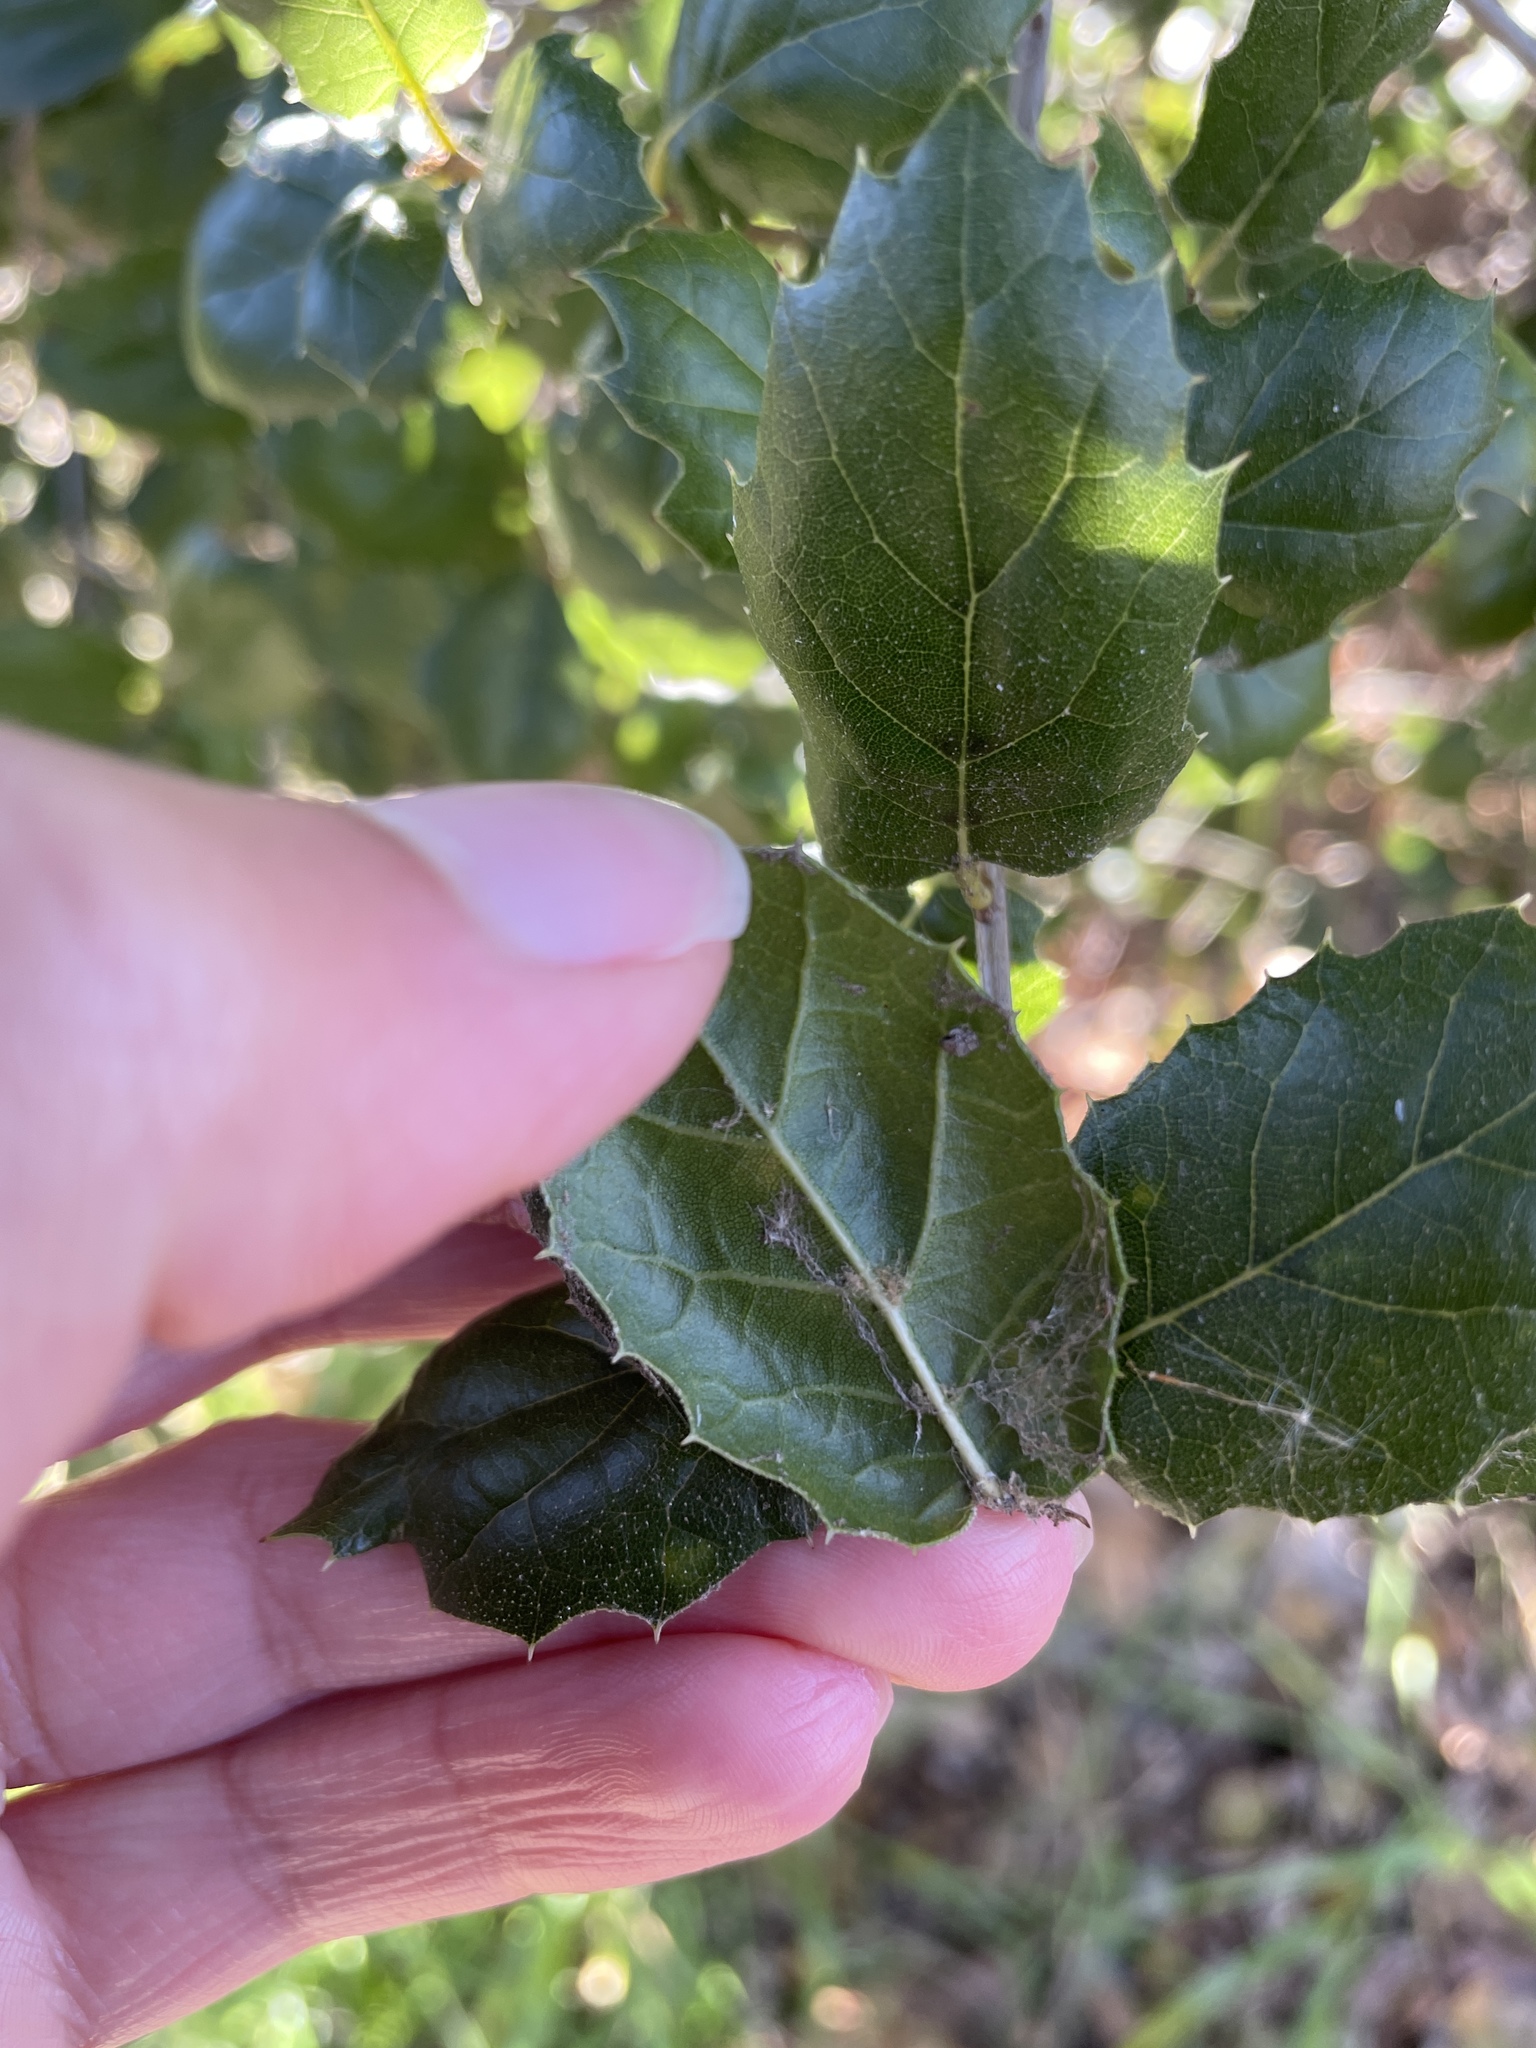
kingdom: Plantae
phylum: Tracheophyta
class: Magnoliopsida
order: Fagales
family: Fagaceae
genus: Quercus
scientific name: Quercus agrifolia
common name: California live oak
